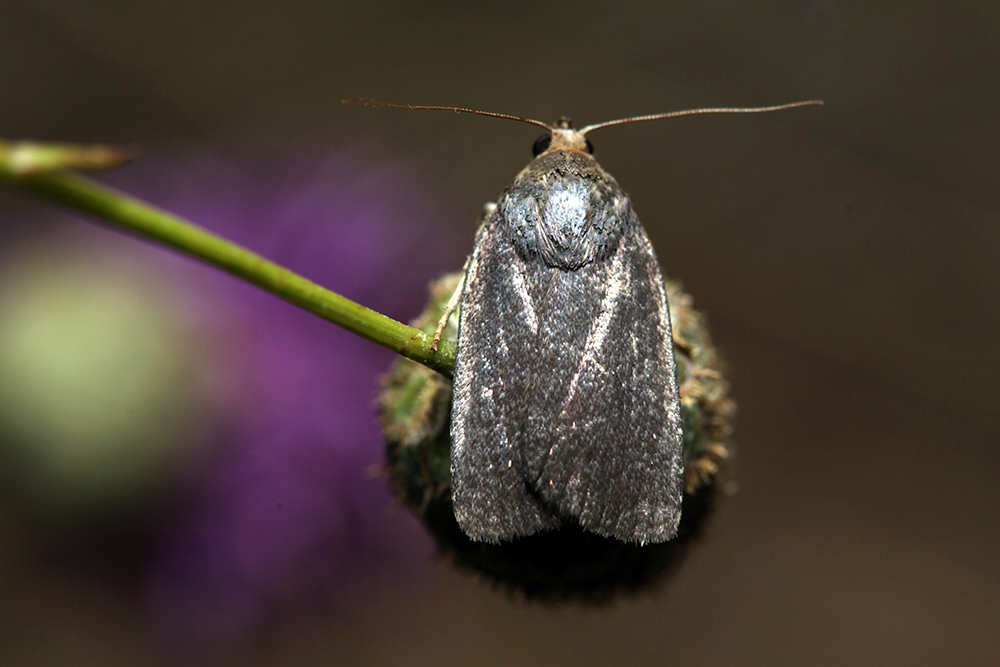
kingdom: Animalia
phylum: Arthropoda
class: Insecta
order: Lepidoptera
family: Noctuidae
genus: Amphipyra
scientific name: Amphipyra tetra
